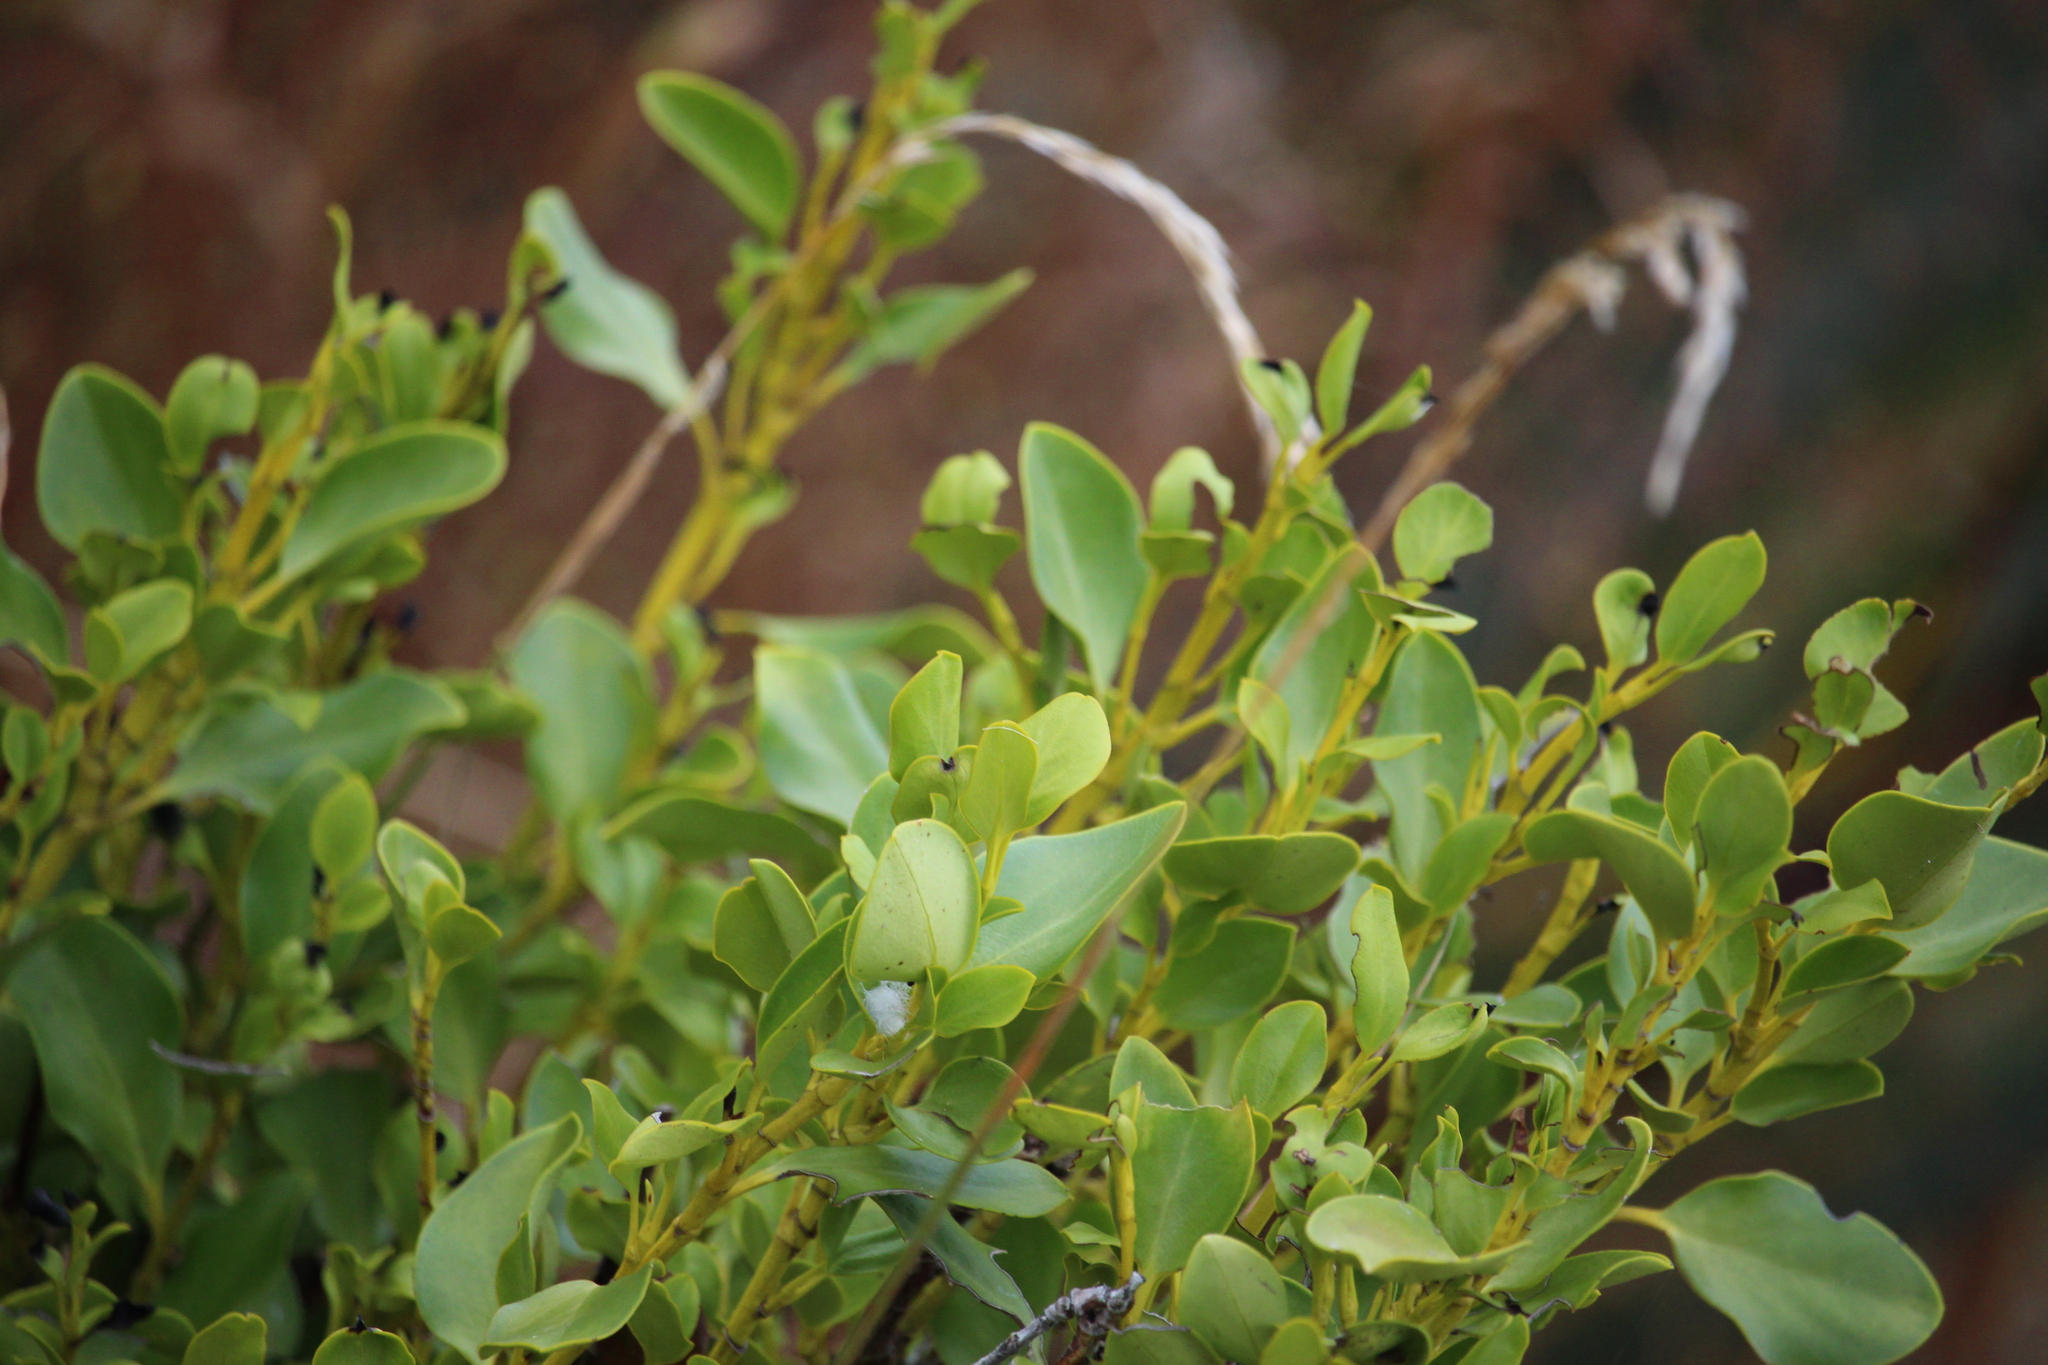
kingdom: Plantae
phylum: Tracheophyta
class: Magnoliopsida
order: Apiales
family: Griseliniaceae
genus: Griselinia
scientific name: Griselinia littoralis
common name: New zealand broadleaf
